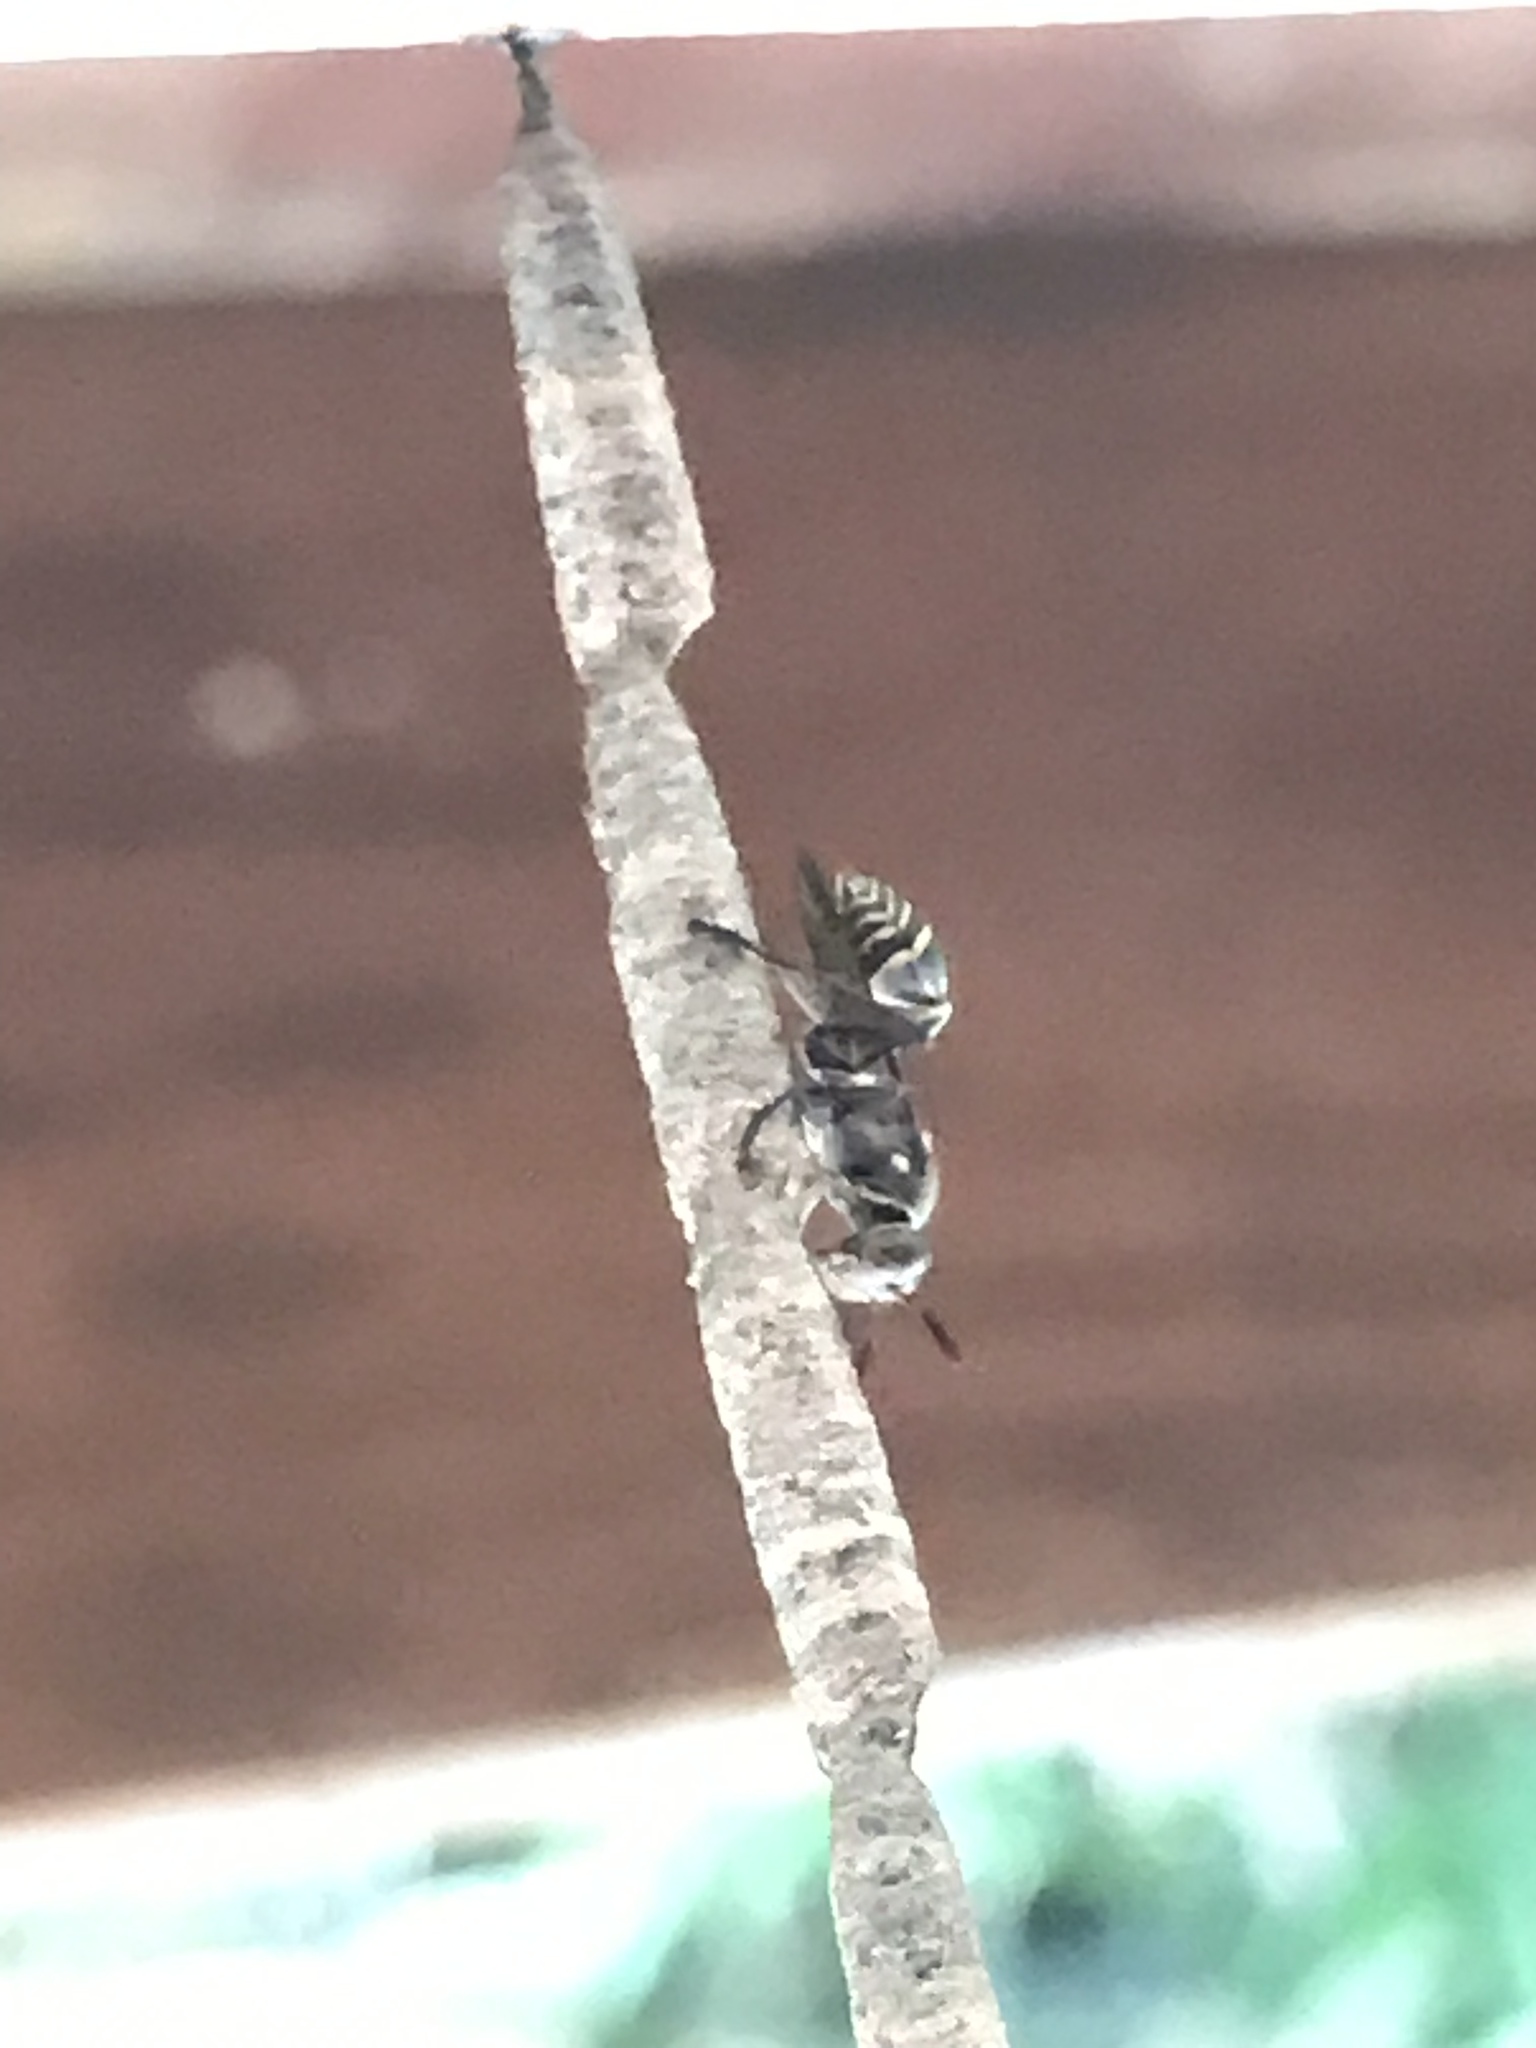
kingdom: Animalia
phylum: Arthropoda
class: Insecta
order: Hymenoptera
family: Vespidae
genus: Mischocyttarus
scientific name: Mischocyttarus vaqueroi
